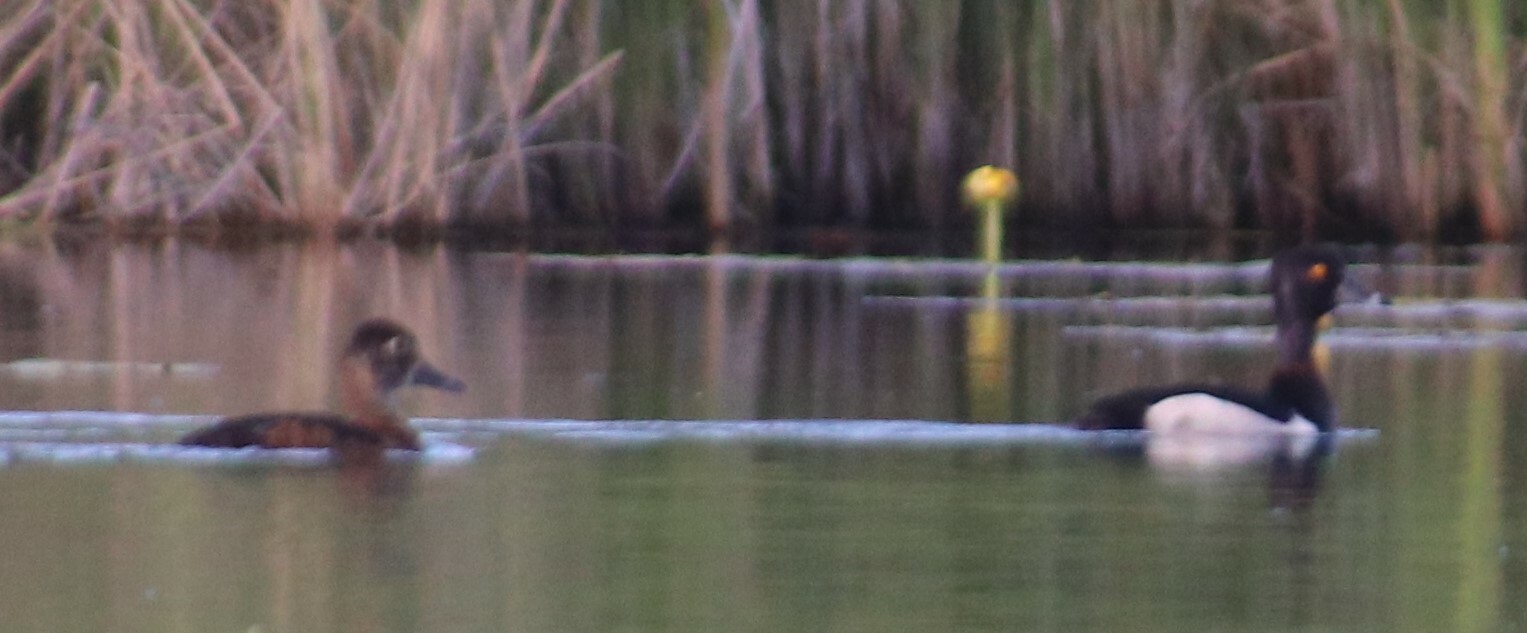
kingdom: Animalia
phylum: Chordata
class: Aves
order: Anseriformes
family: Anatidae
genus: Aythya
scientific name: Aythya collaris
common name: Ring-necked duck
